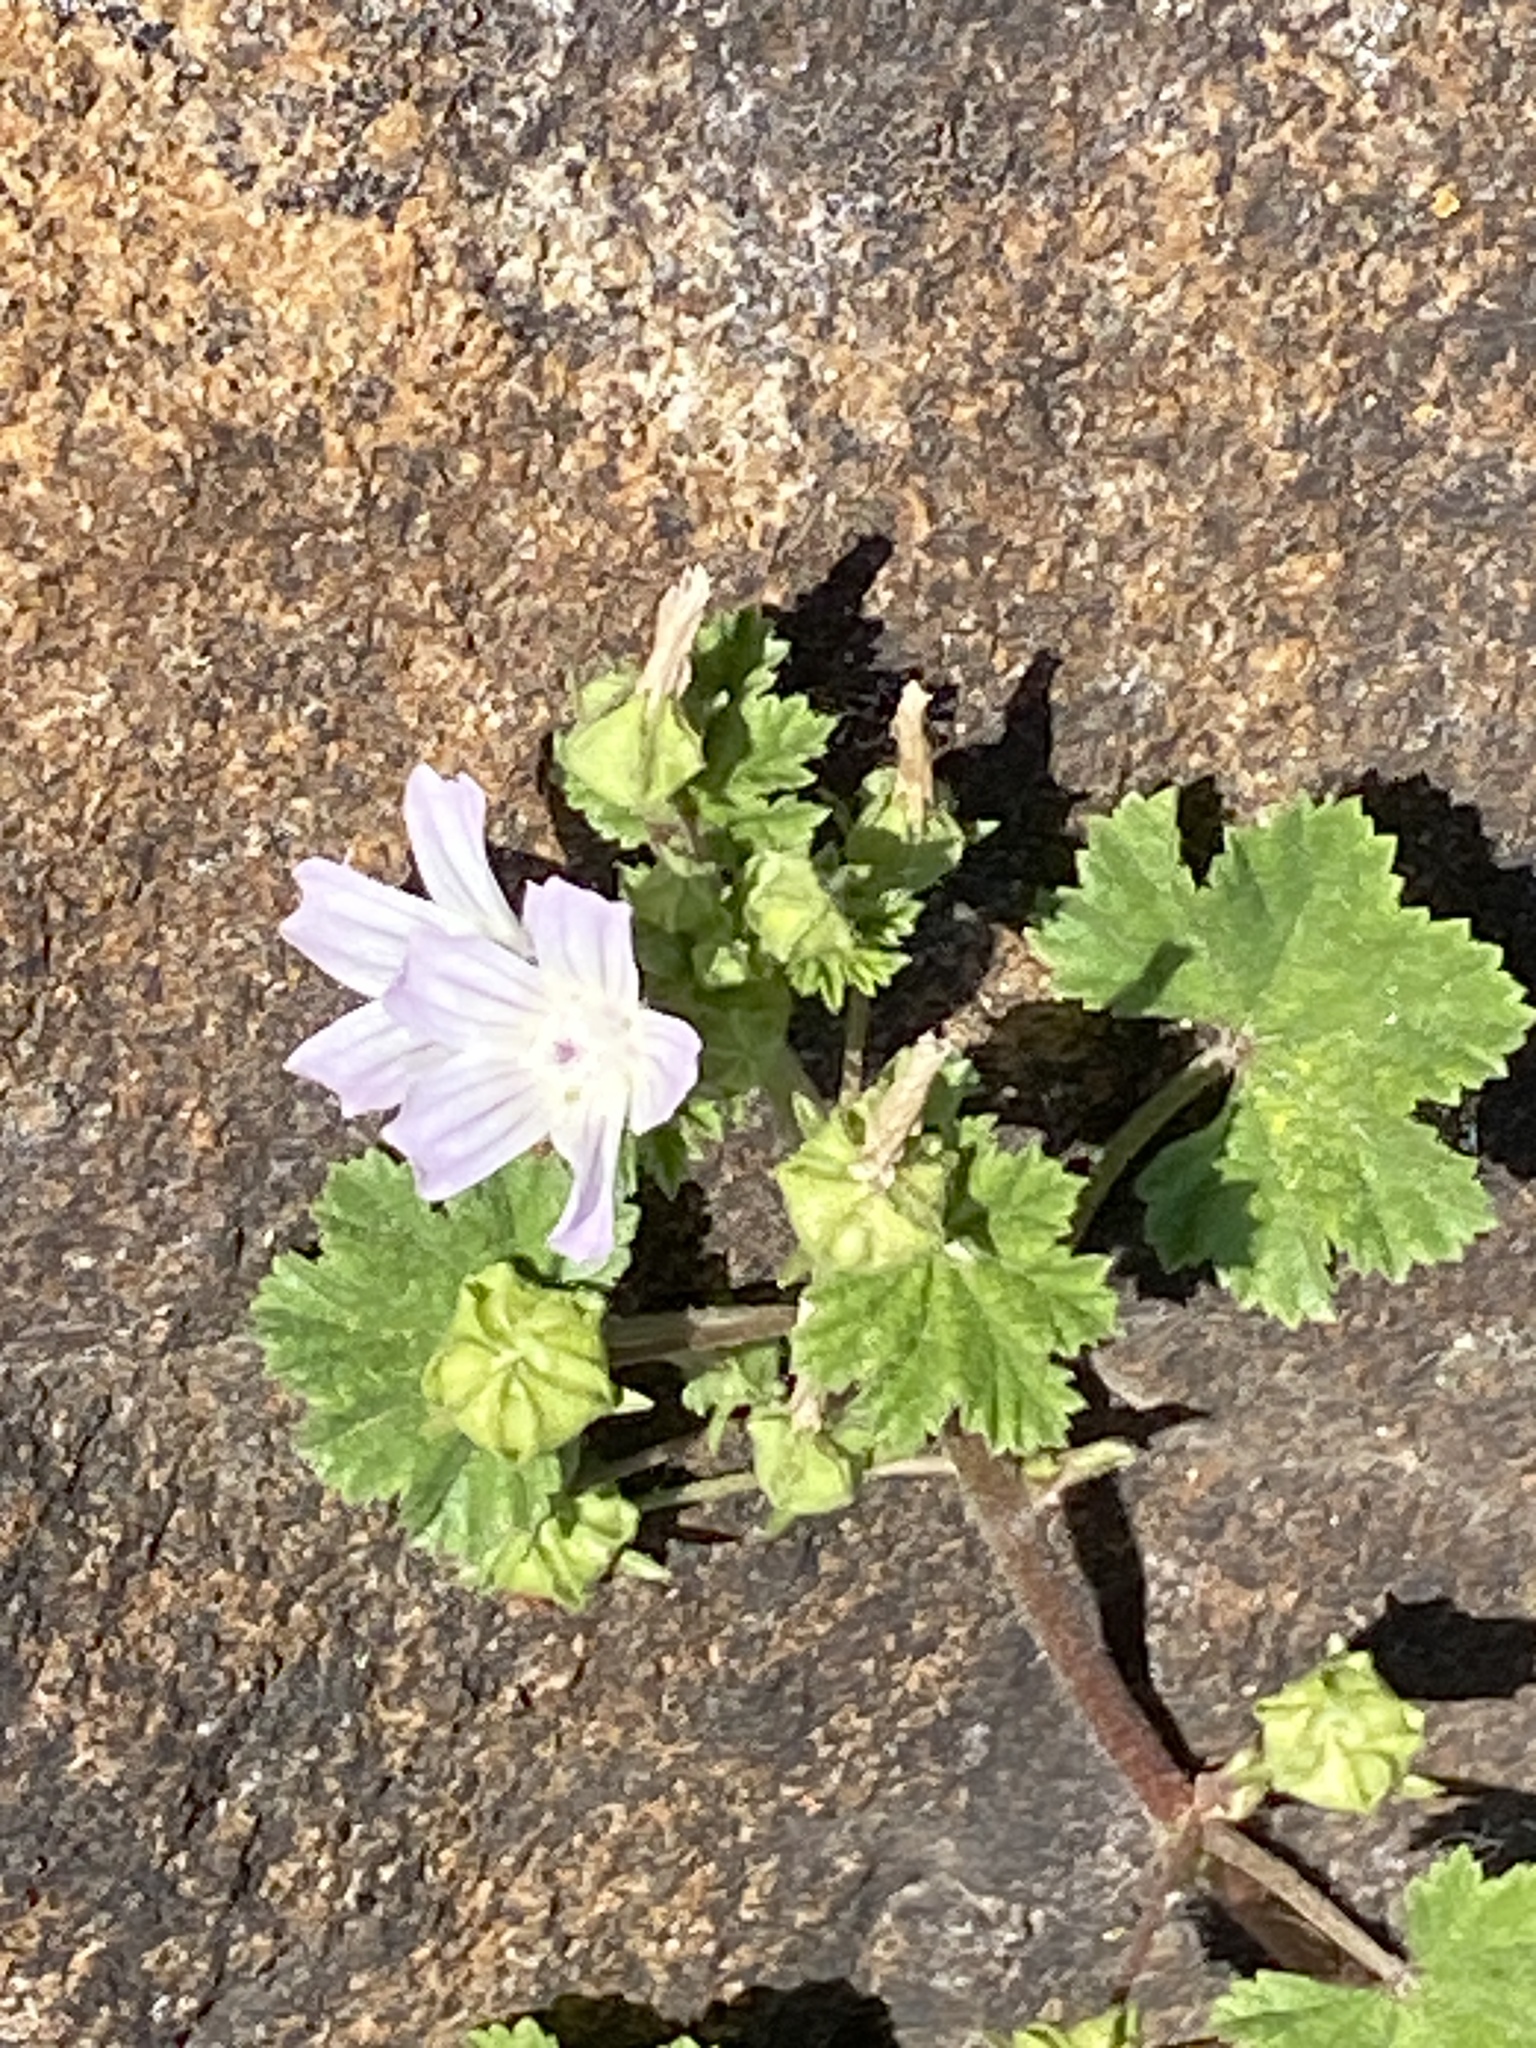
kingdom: Plantae
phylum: Tracheophyta
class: Magnoliopsida
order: Malvales
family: Malvaceae
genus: Malva
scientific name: Malva neglecta
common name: Common mallow
